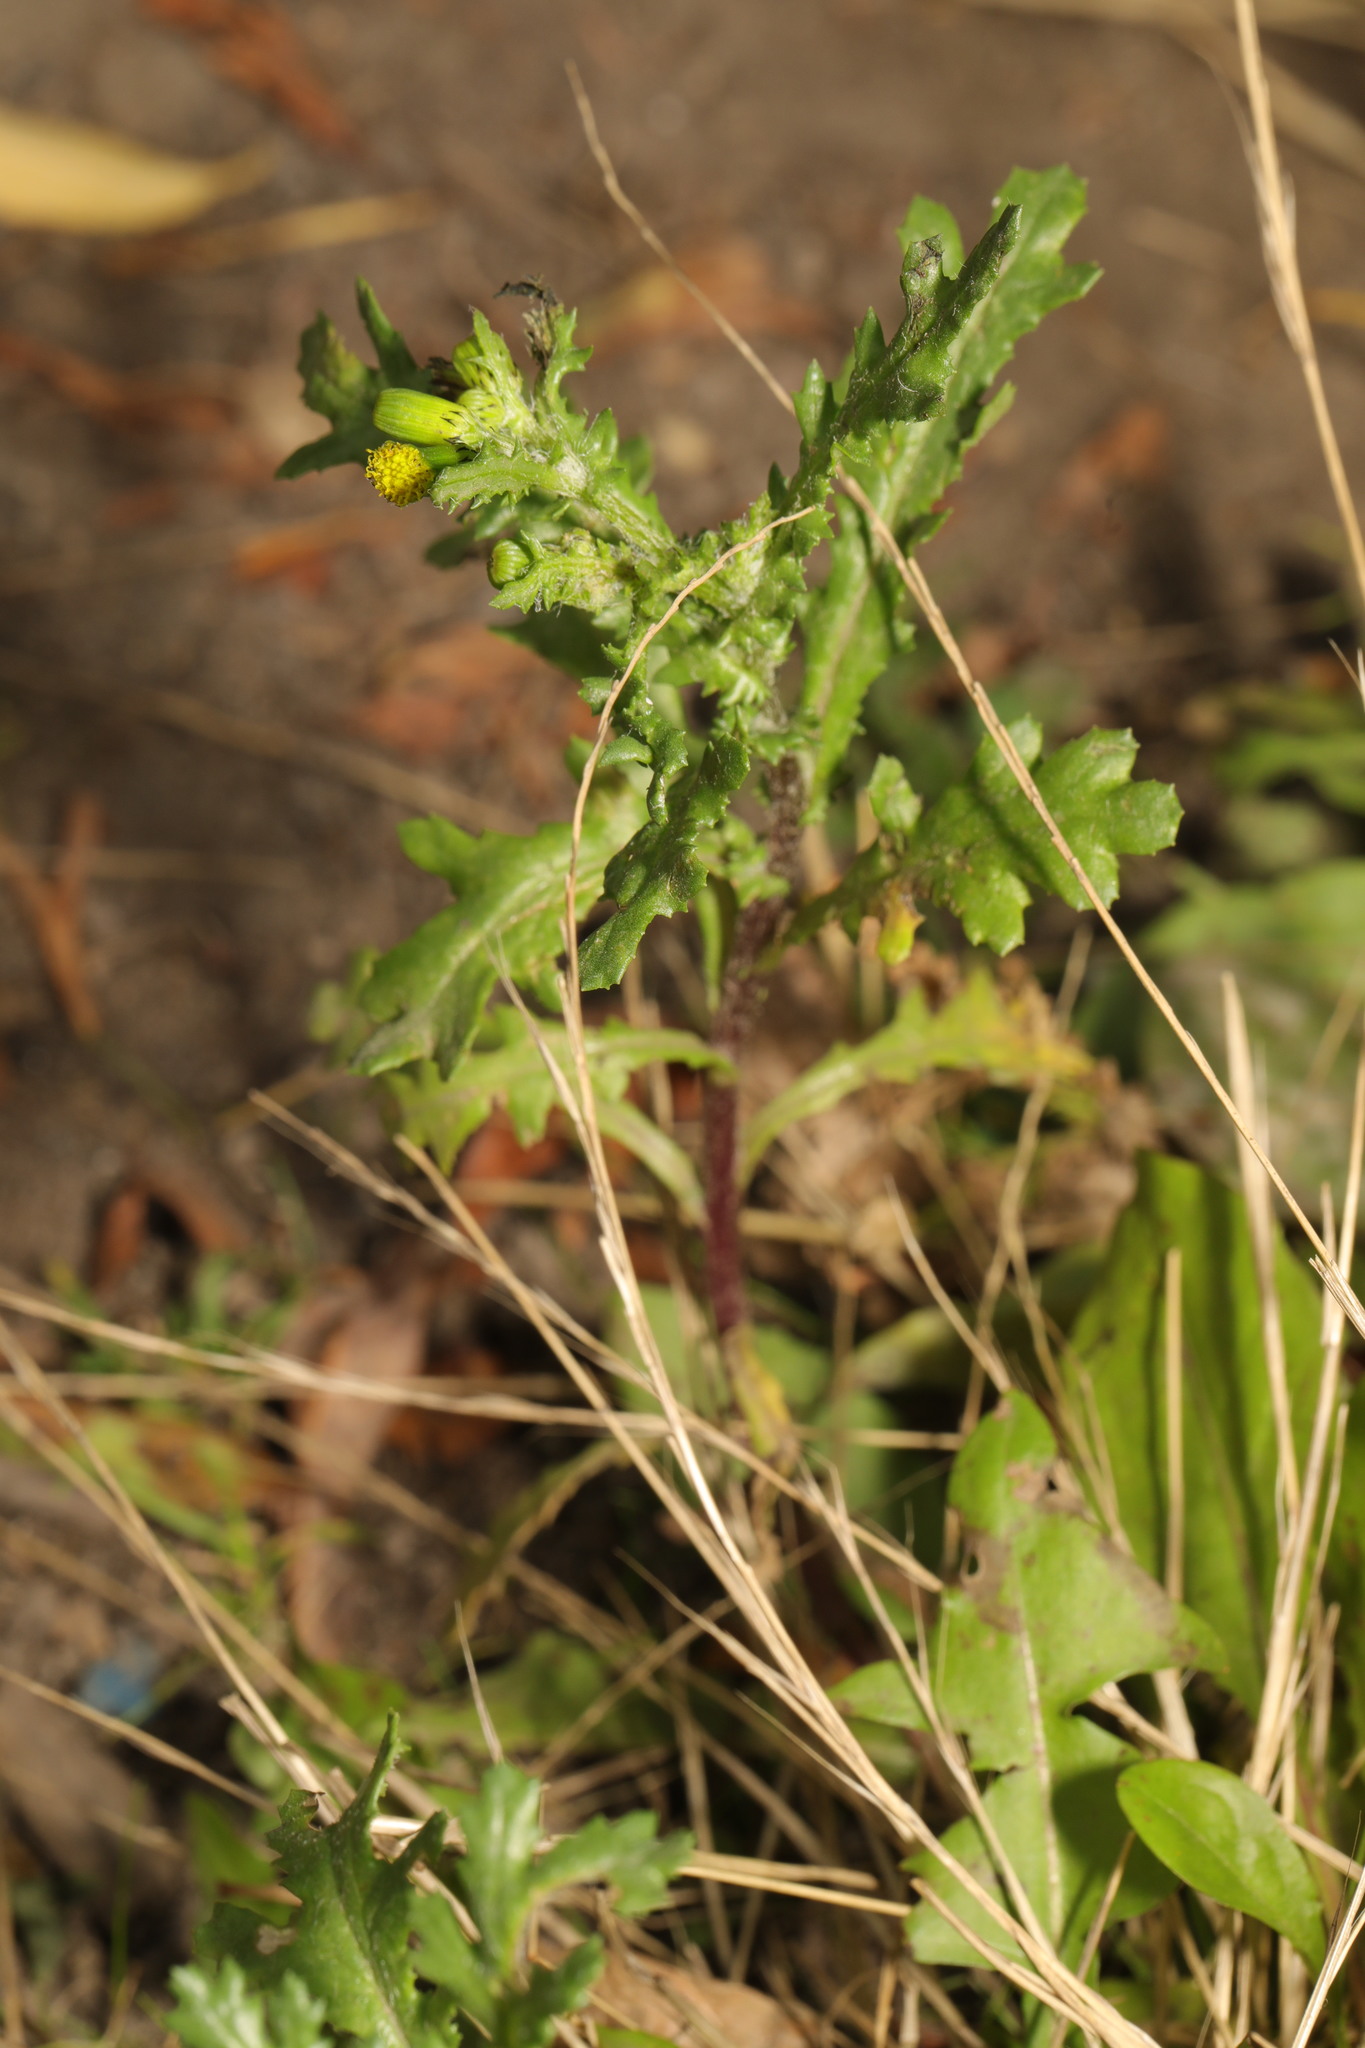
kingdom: Plantae
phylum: Tracheophyta
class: Magnoliopsida
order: Asterales
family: Asteraceae
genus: Senecio
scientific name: Senecio vulgaris
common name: Old-man-in-the-spring
